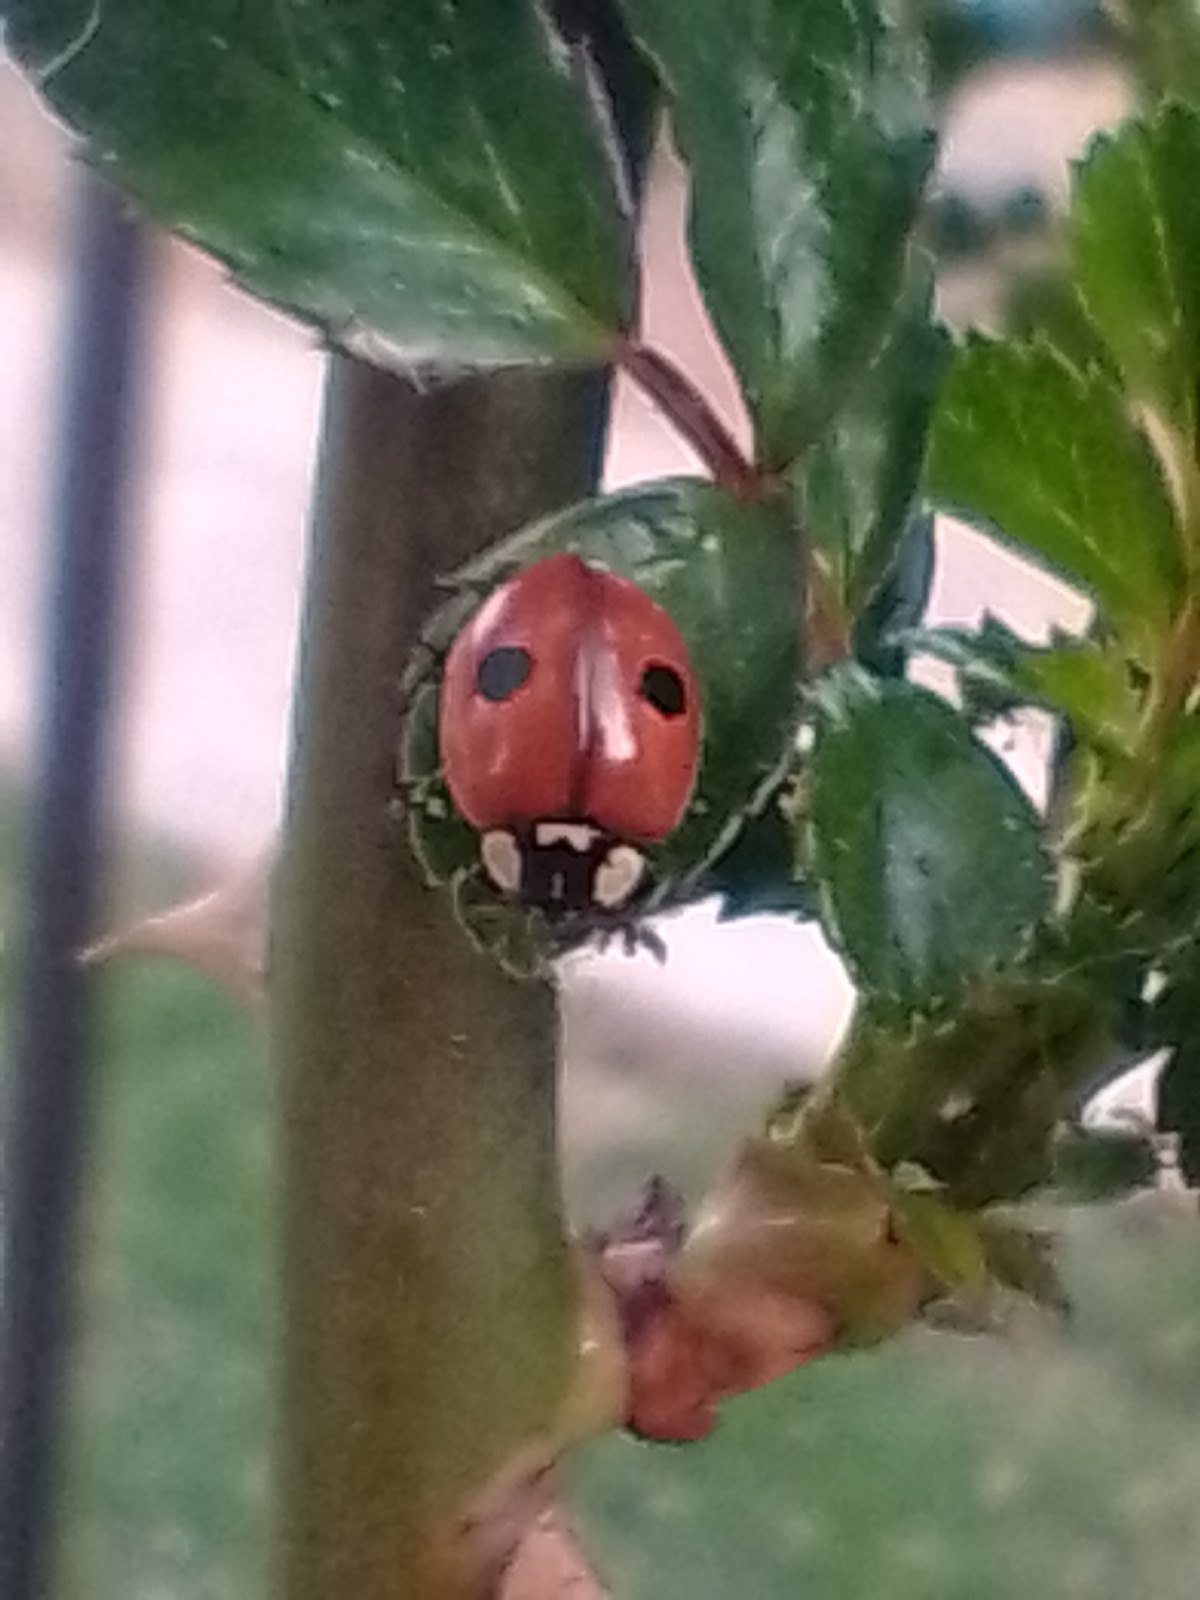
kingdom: Animalia
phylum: Arthropoda
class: Insecta
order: Coleoptera
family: Coccinellidae
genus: Adalia
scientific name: Adalia bipunctata
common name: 2-spot ladybird
